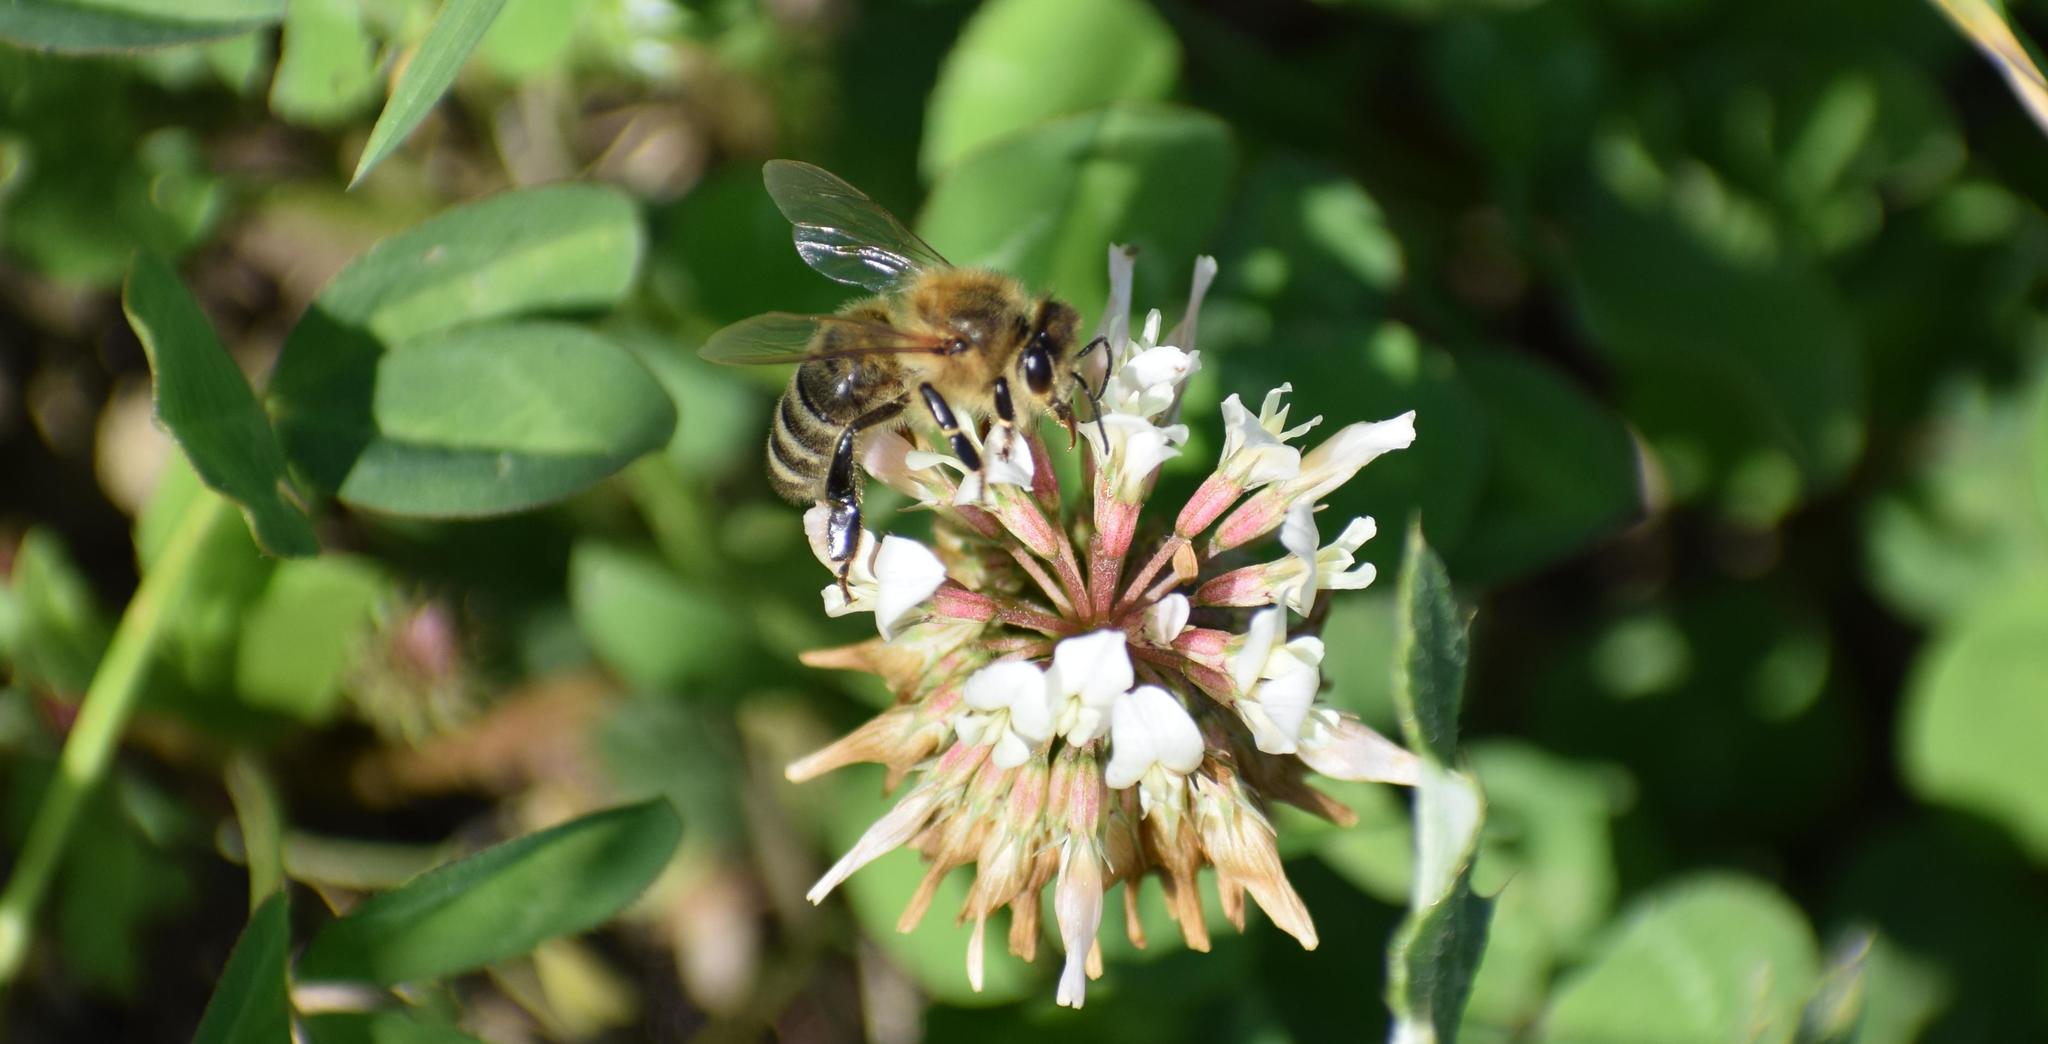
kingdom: Animalia
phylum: Arthropoda
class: Insecta
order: Hymenoptera
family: Apidae
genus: Apis
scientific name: Apis mellifera
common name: Honey bee
